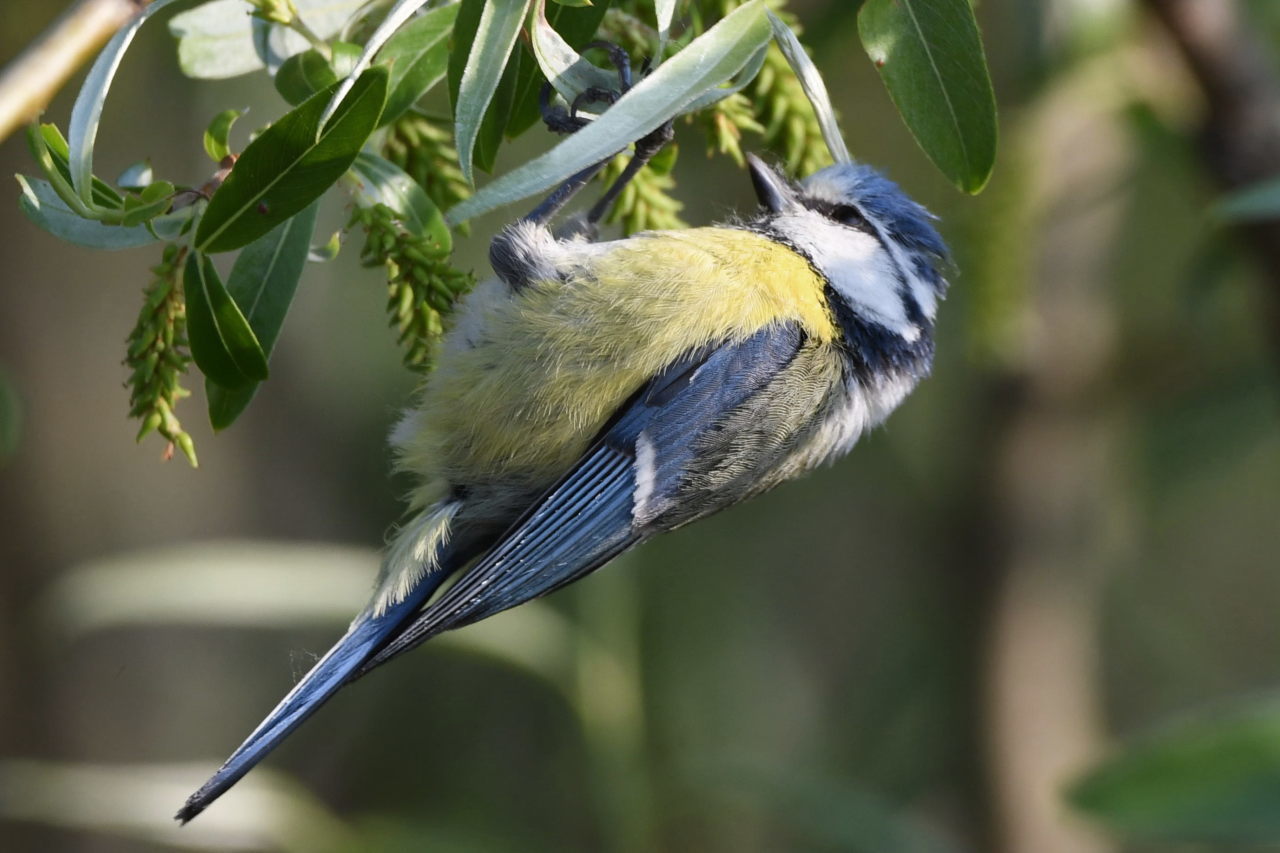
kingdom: Animalia
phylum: Chordata
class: Aves
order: Passeriformes
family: Paridae
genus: Cyanistes
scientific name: Cyanistes caeruleus
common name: Eurasian blue tit
